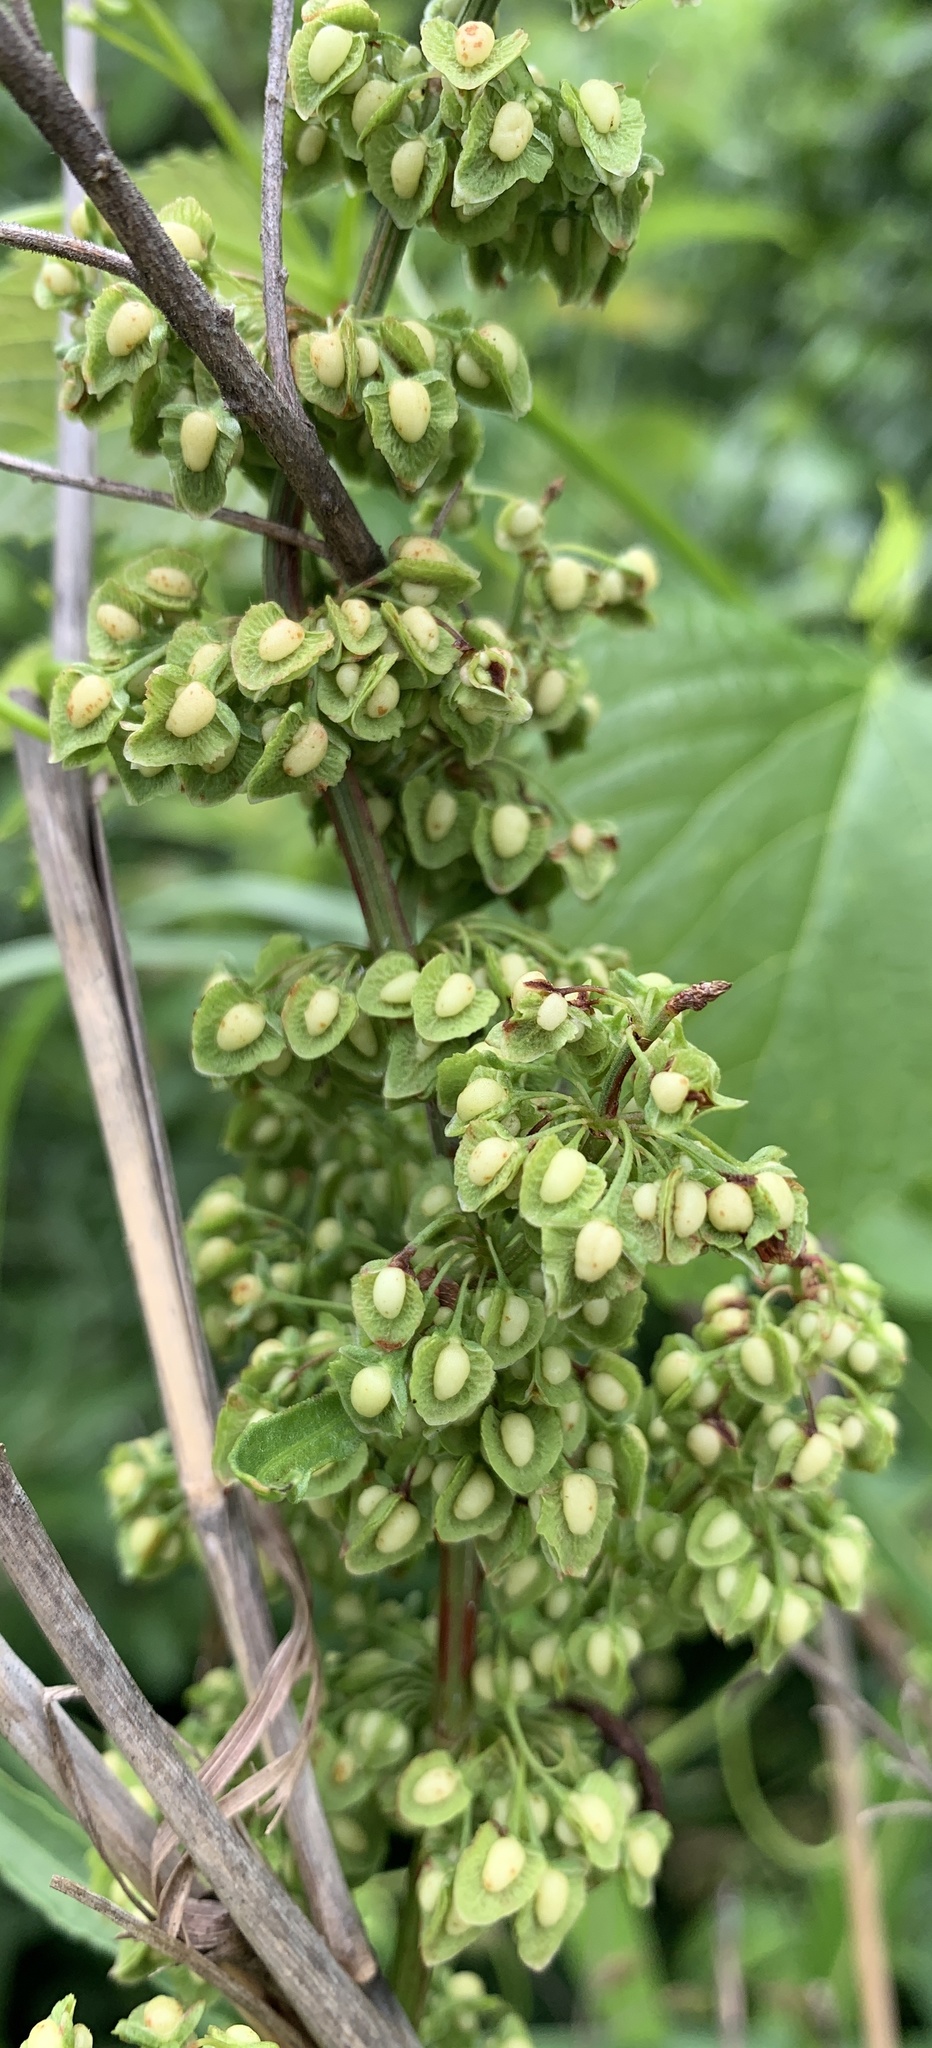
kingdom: Plantae
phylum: Tracheophyta
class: Magnoliopsida
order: Caryophyllales
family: Polygonaceae
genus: Rumex
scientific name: Rumex crispus
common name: Curled dock
